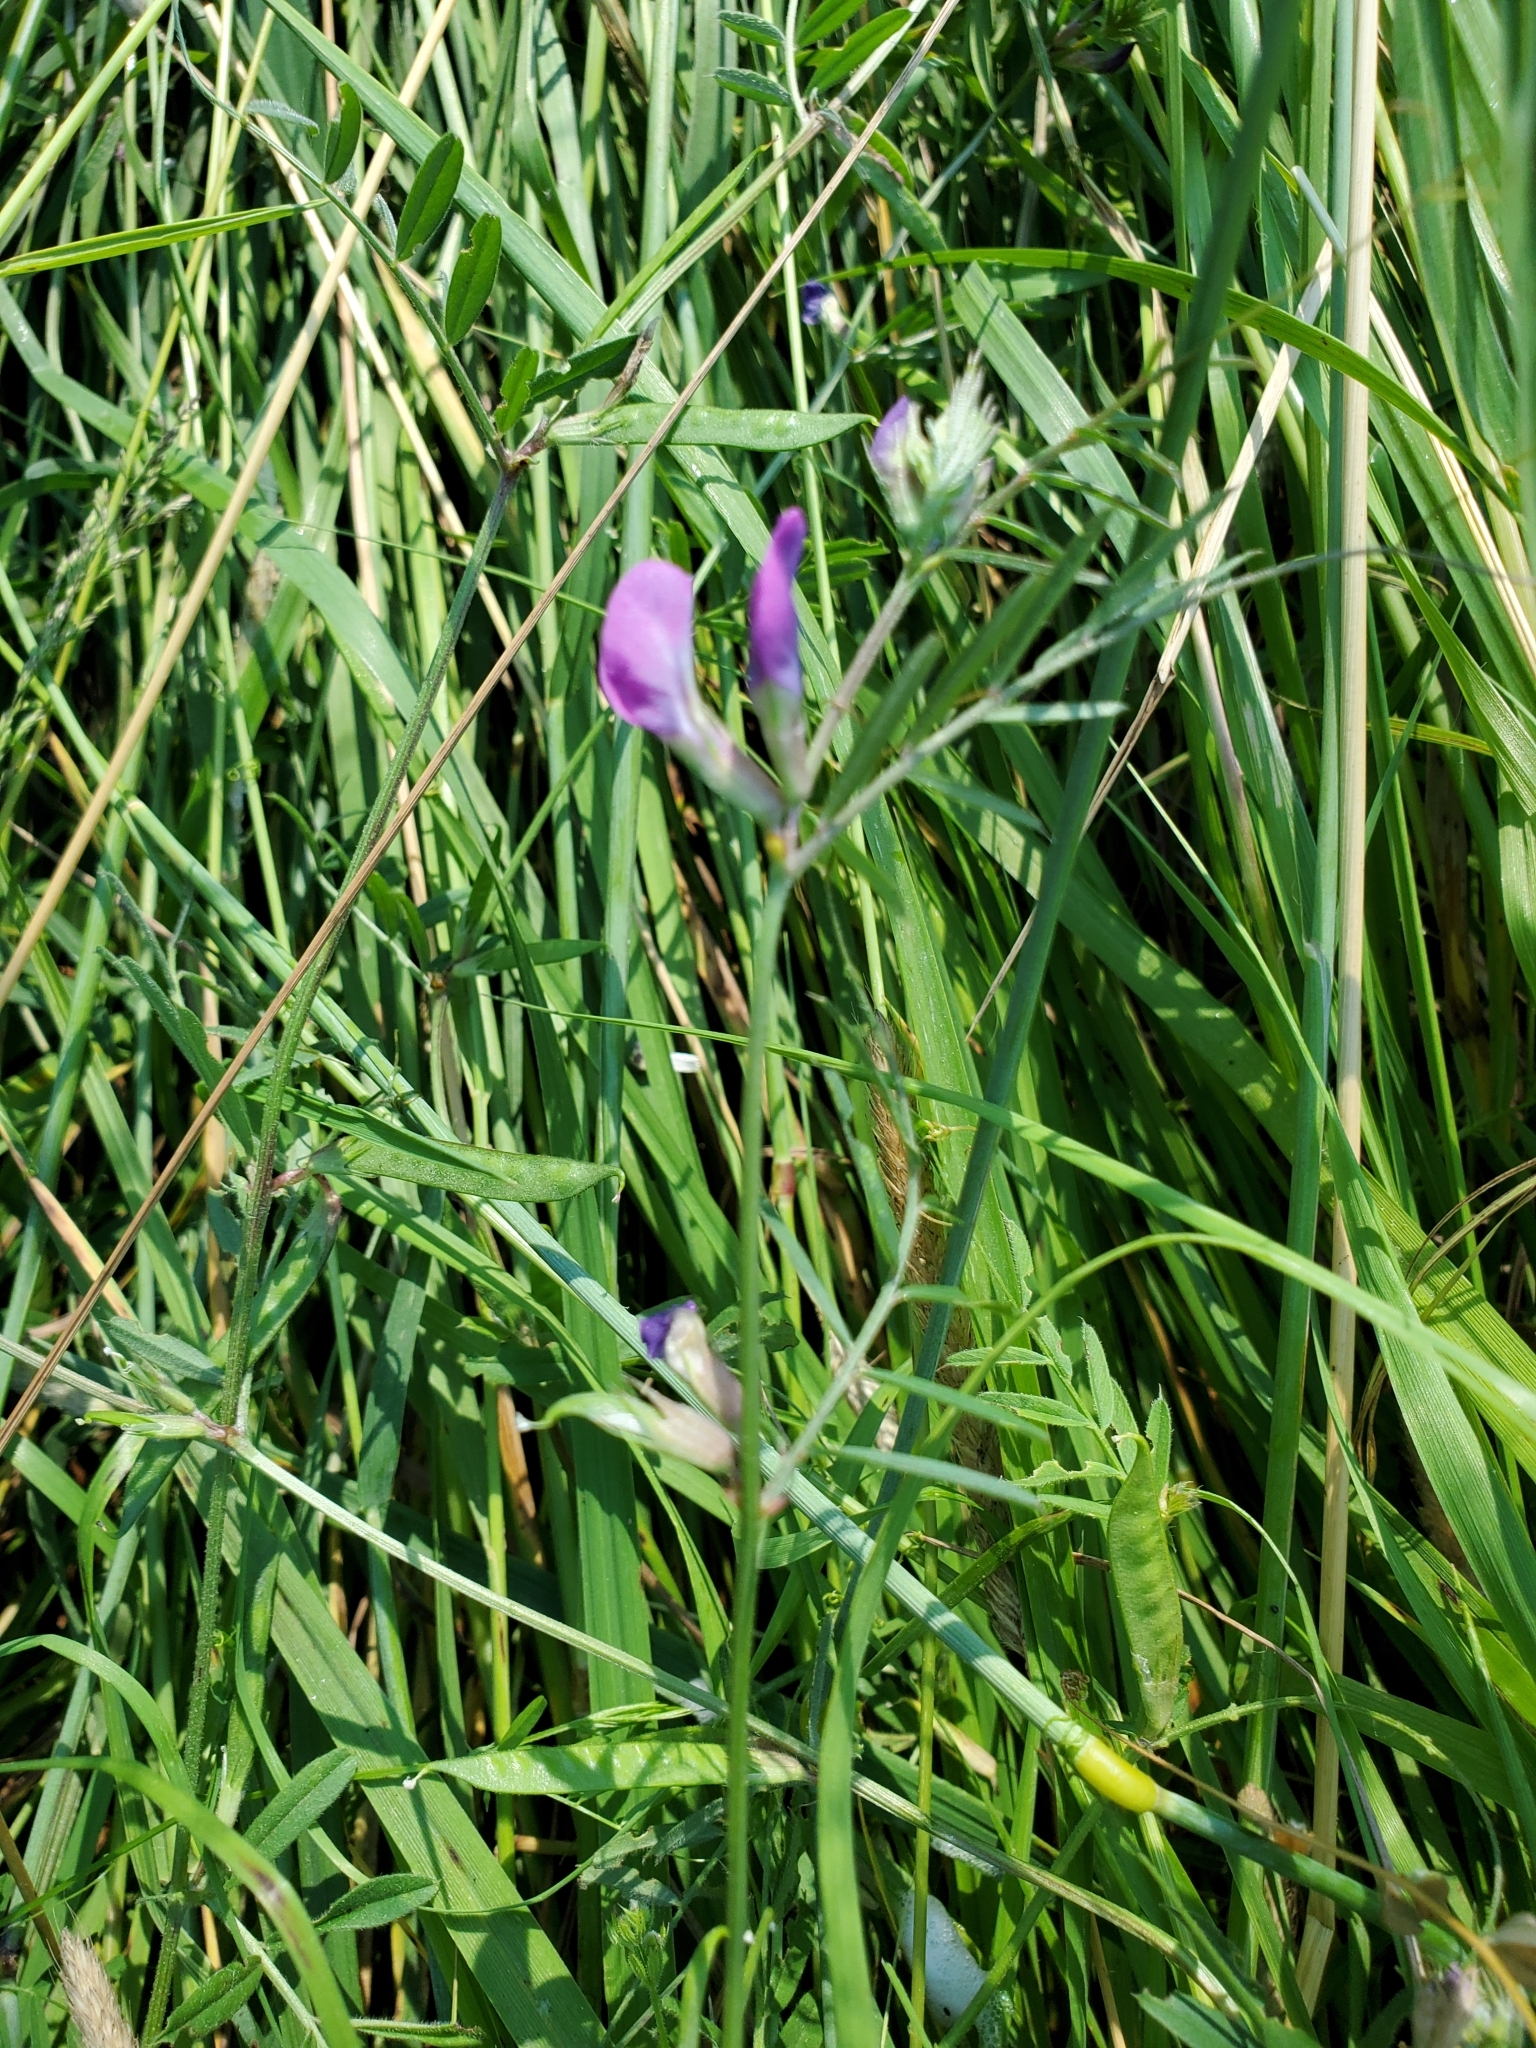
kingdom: Plantae
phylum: Tracheophyta
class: Magnoliopsida
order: Fabales
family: Fabaceae
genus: Vicia
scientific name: Vicia sativa
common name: Garden vetch
